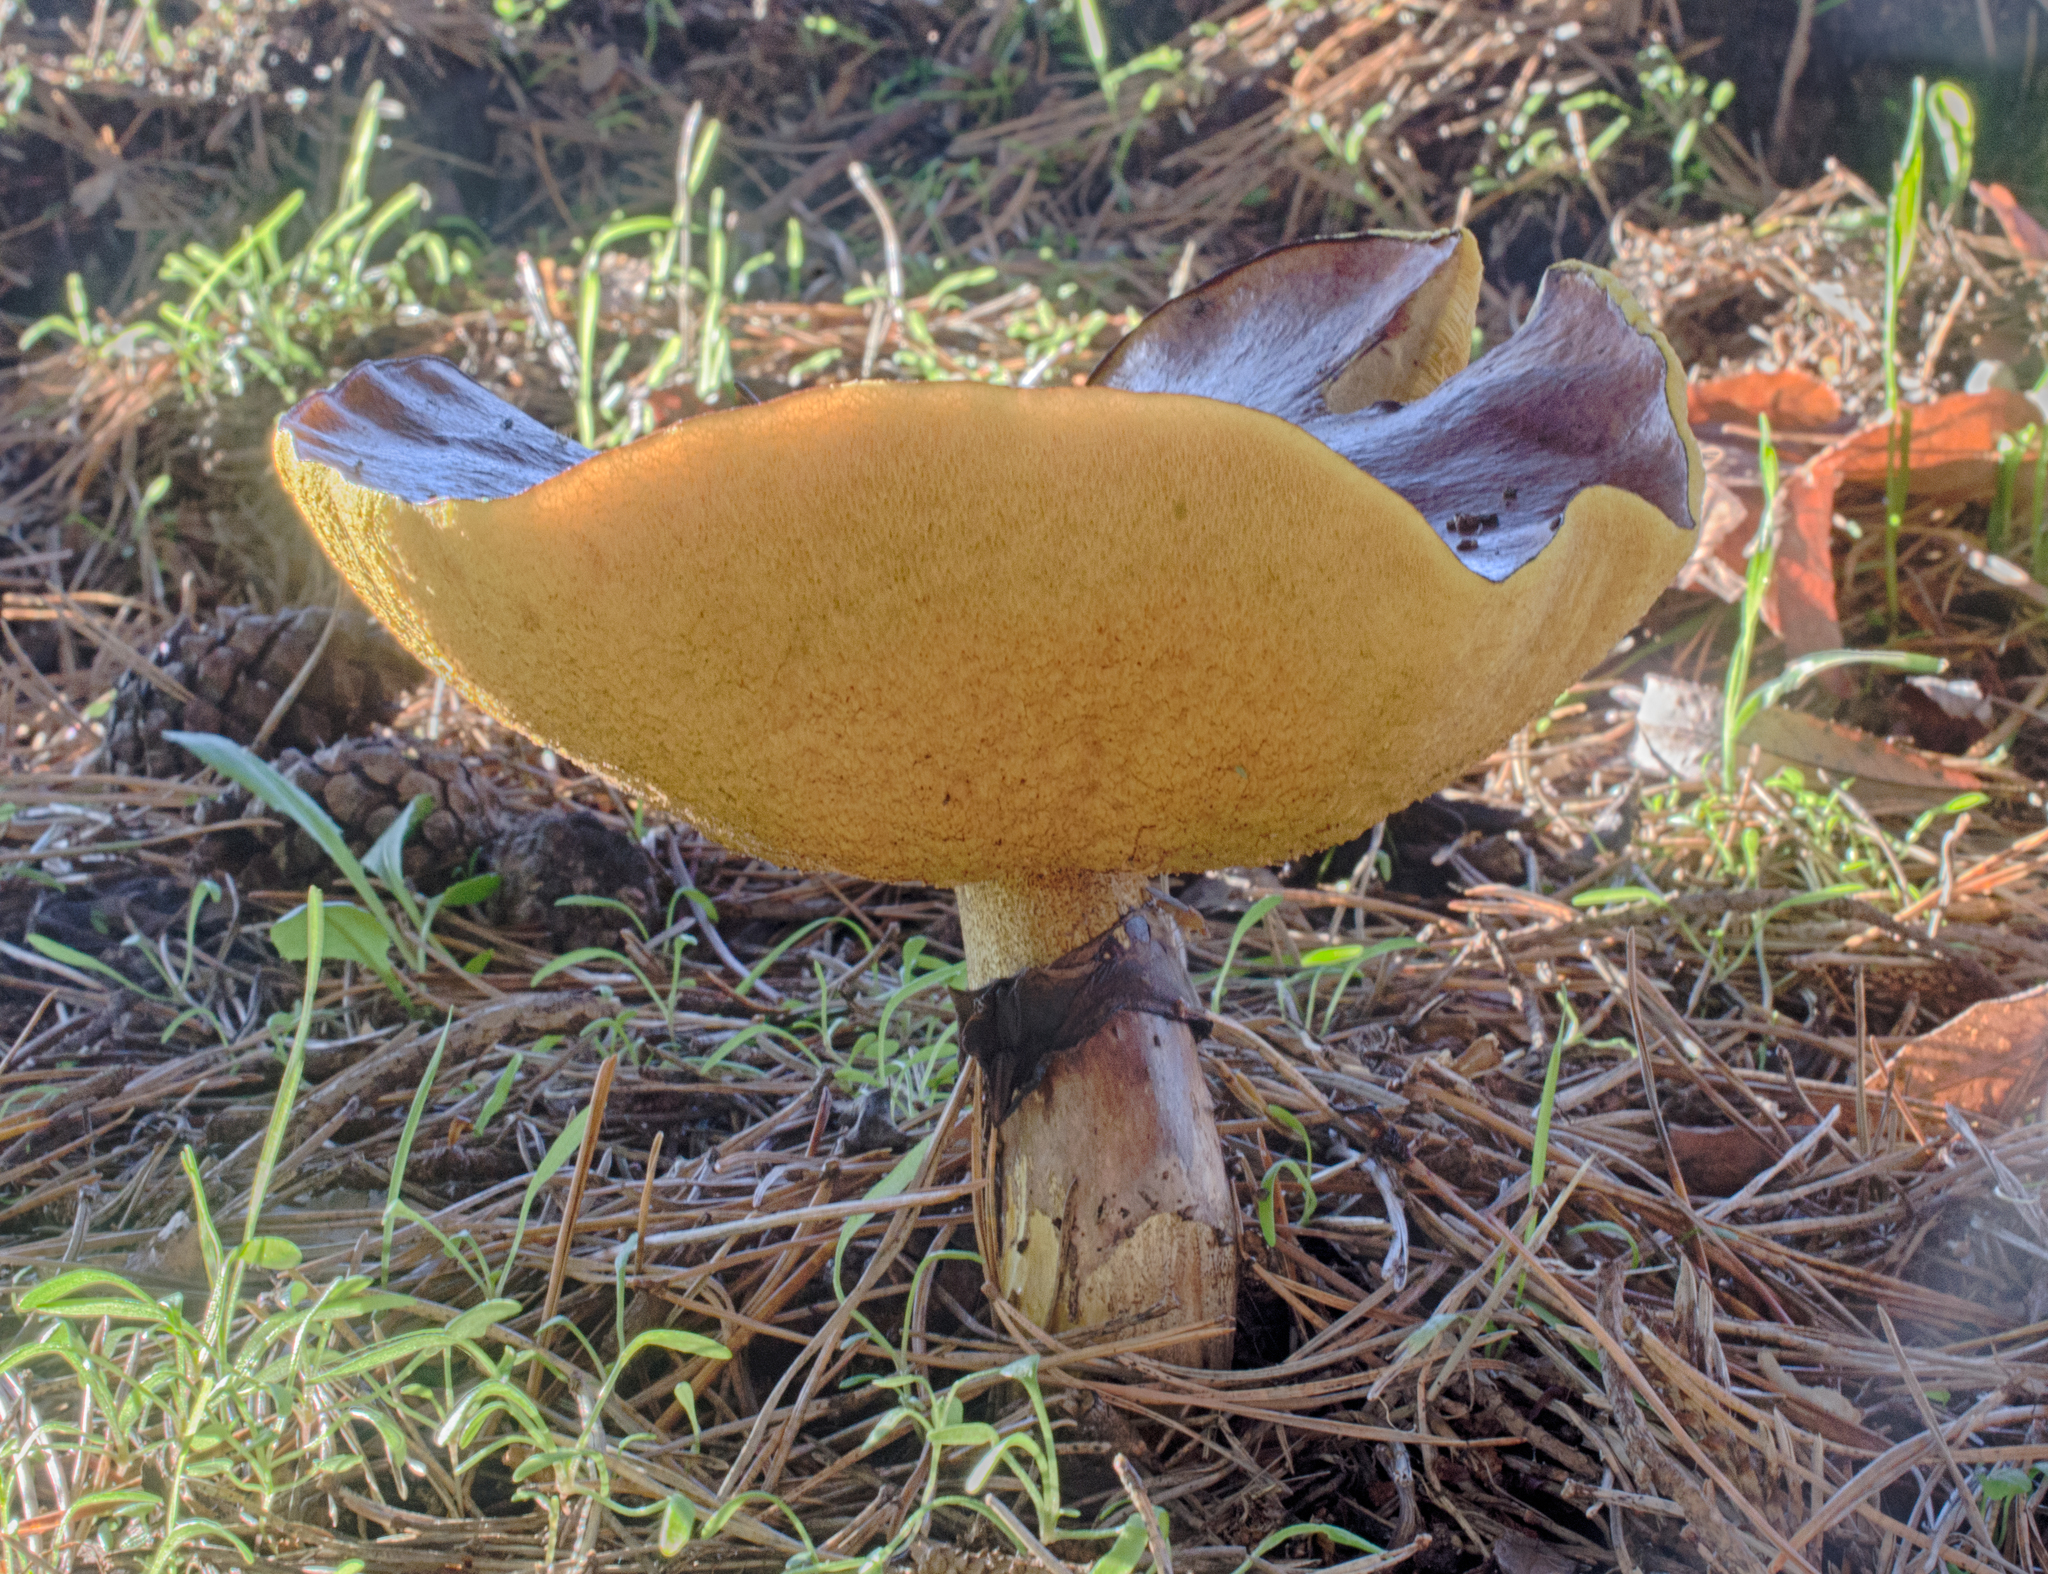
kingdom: Fungi
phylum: Basidiomycota
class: Agaricomycetes
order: Boletales
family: Suillaceae
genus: Suillus
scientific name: Suillus luteus
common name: Slippery jack
